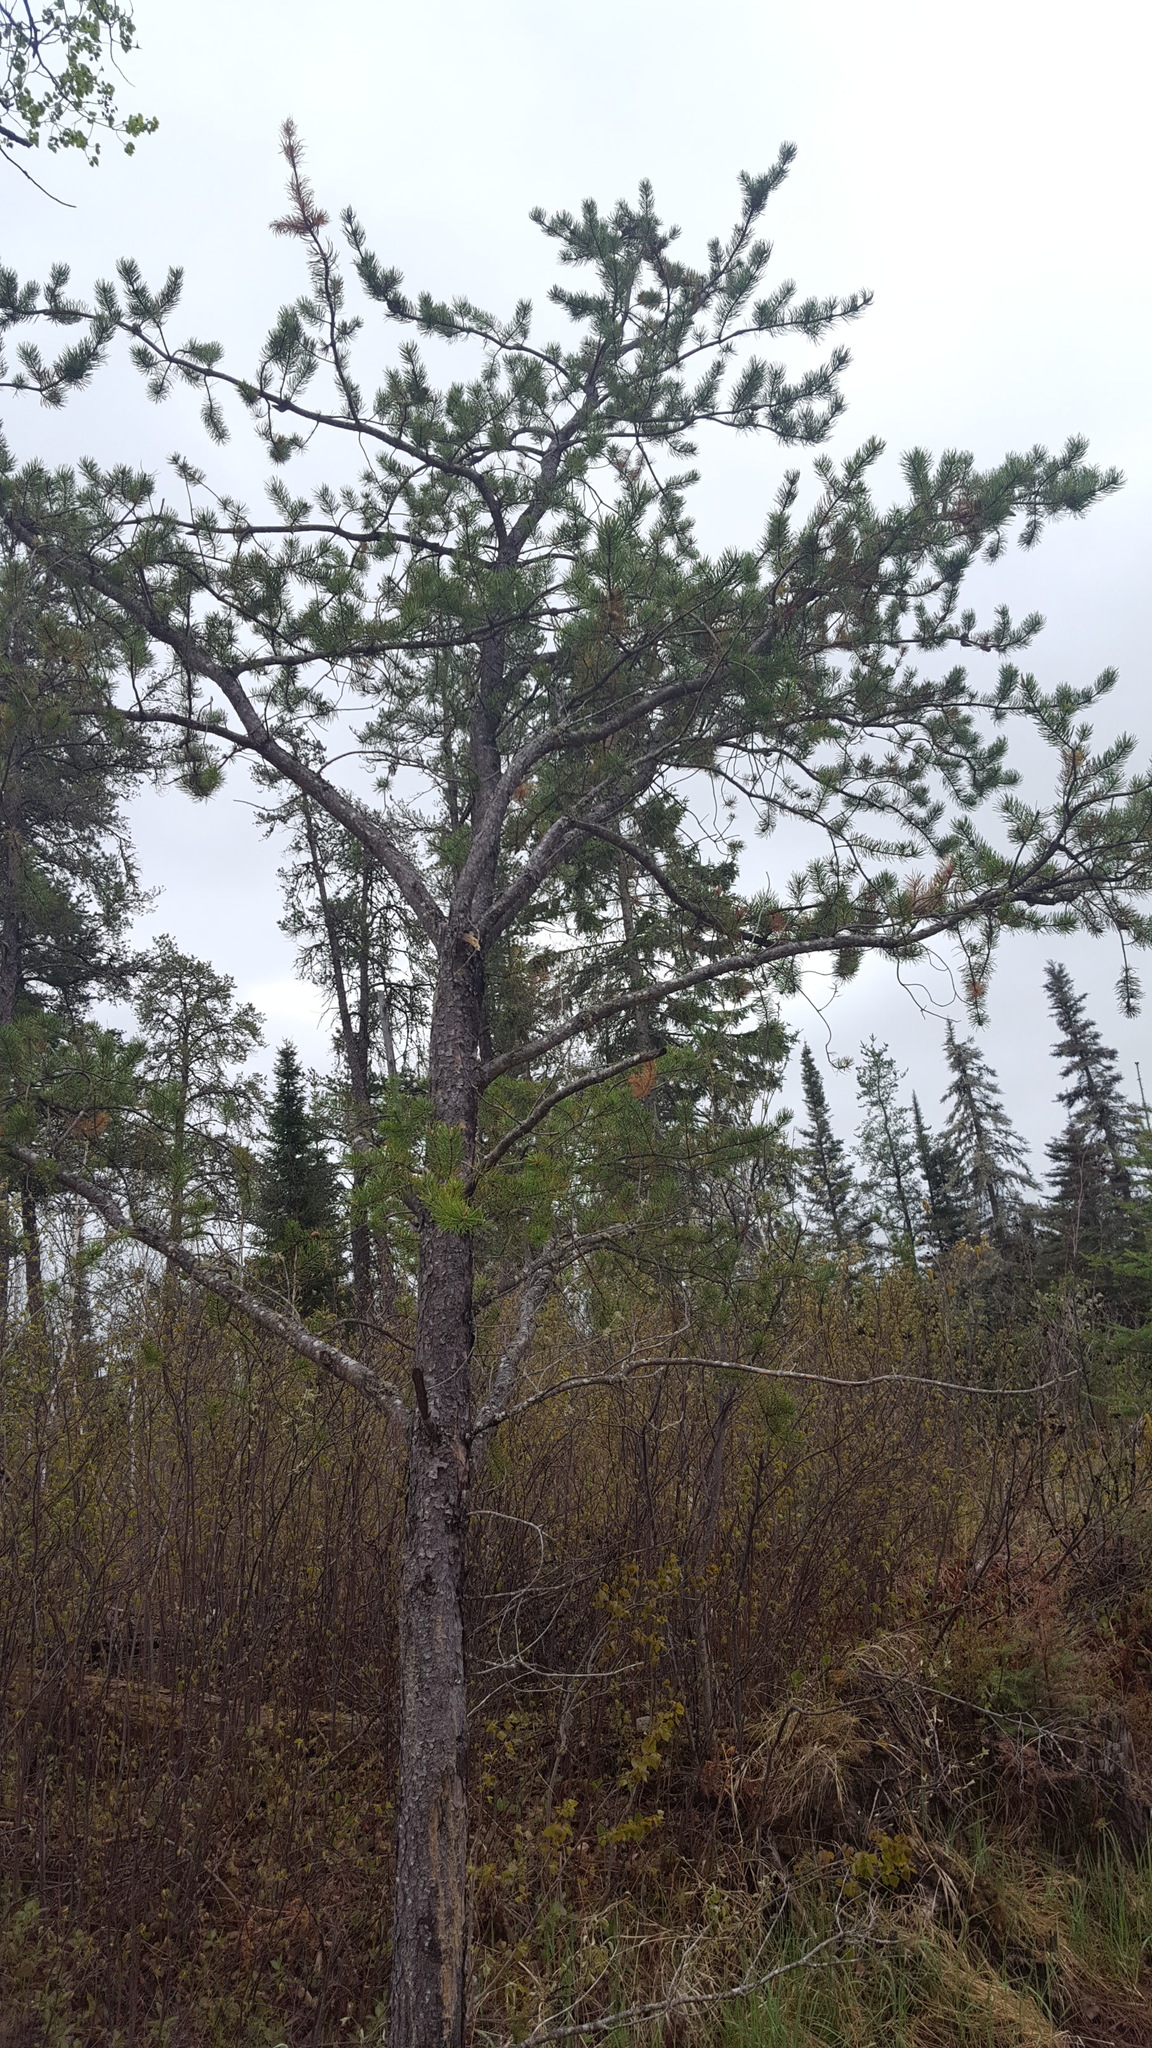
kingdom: Plantae
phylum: Tracheophyta
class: Pinopsida
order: Pinales
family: Pinaceae
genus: Pinus
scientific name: Pinus banksiana
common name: Jack pine
